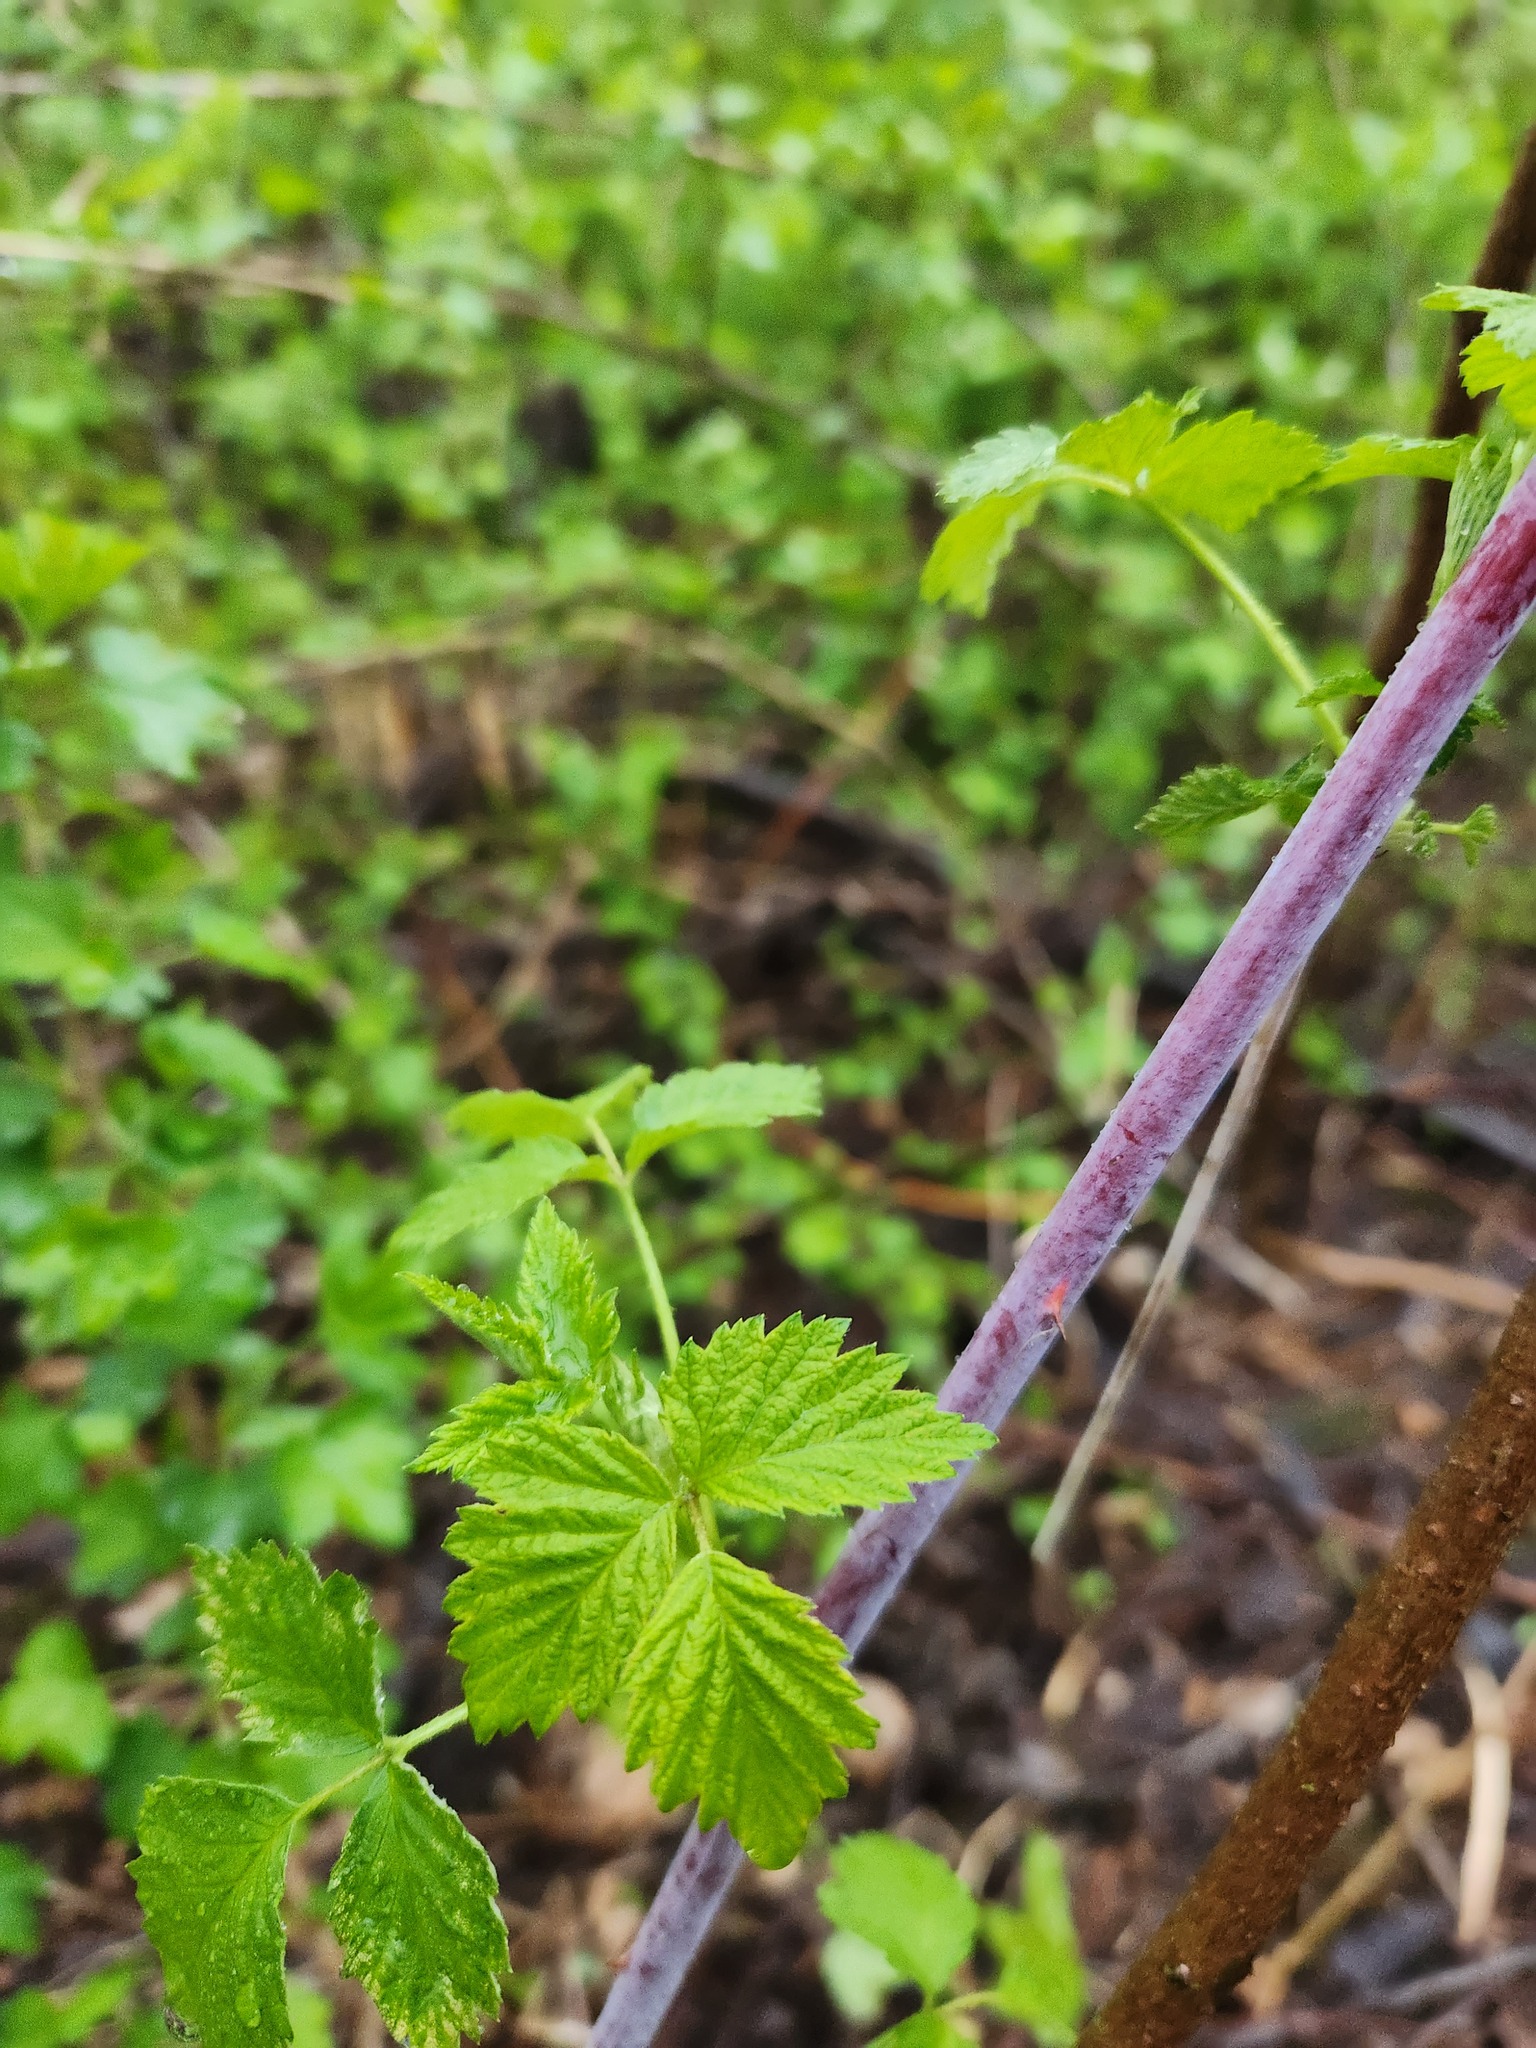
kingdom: Plantae
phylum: Tracheophyta
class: Magnoliopsida
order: Rosales
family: Rosaceae
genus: Rubus
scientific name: Rubus occidentalis
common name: Black raspberry
